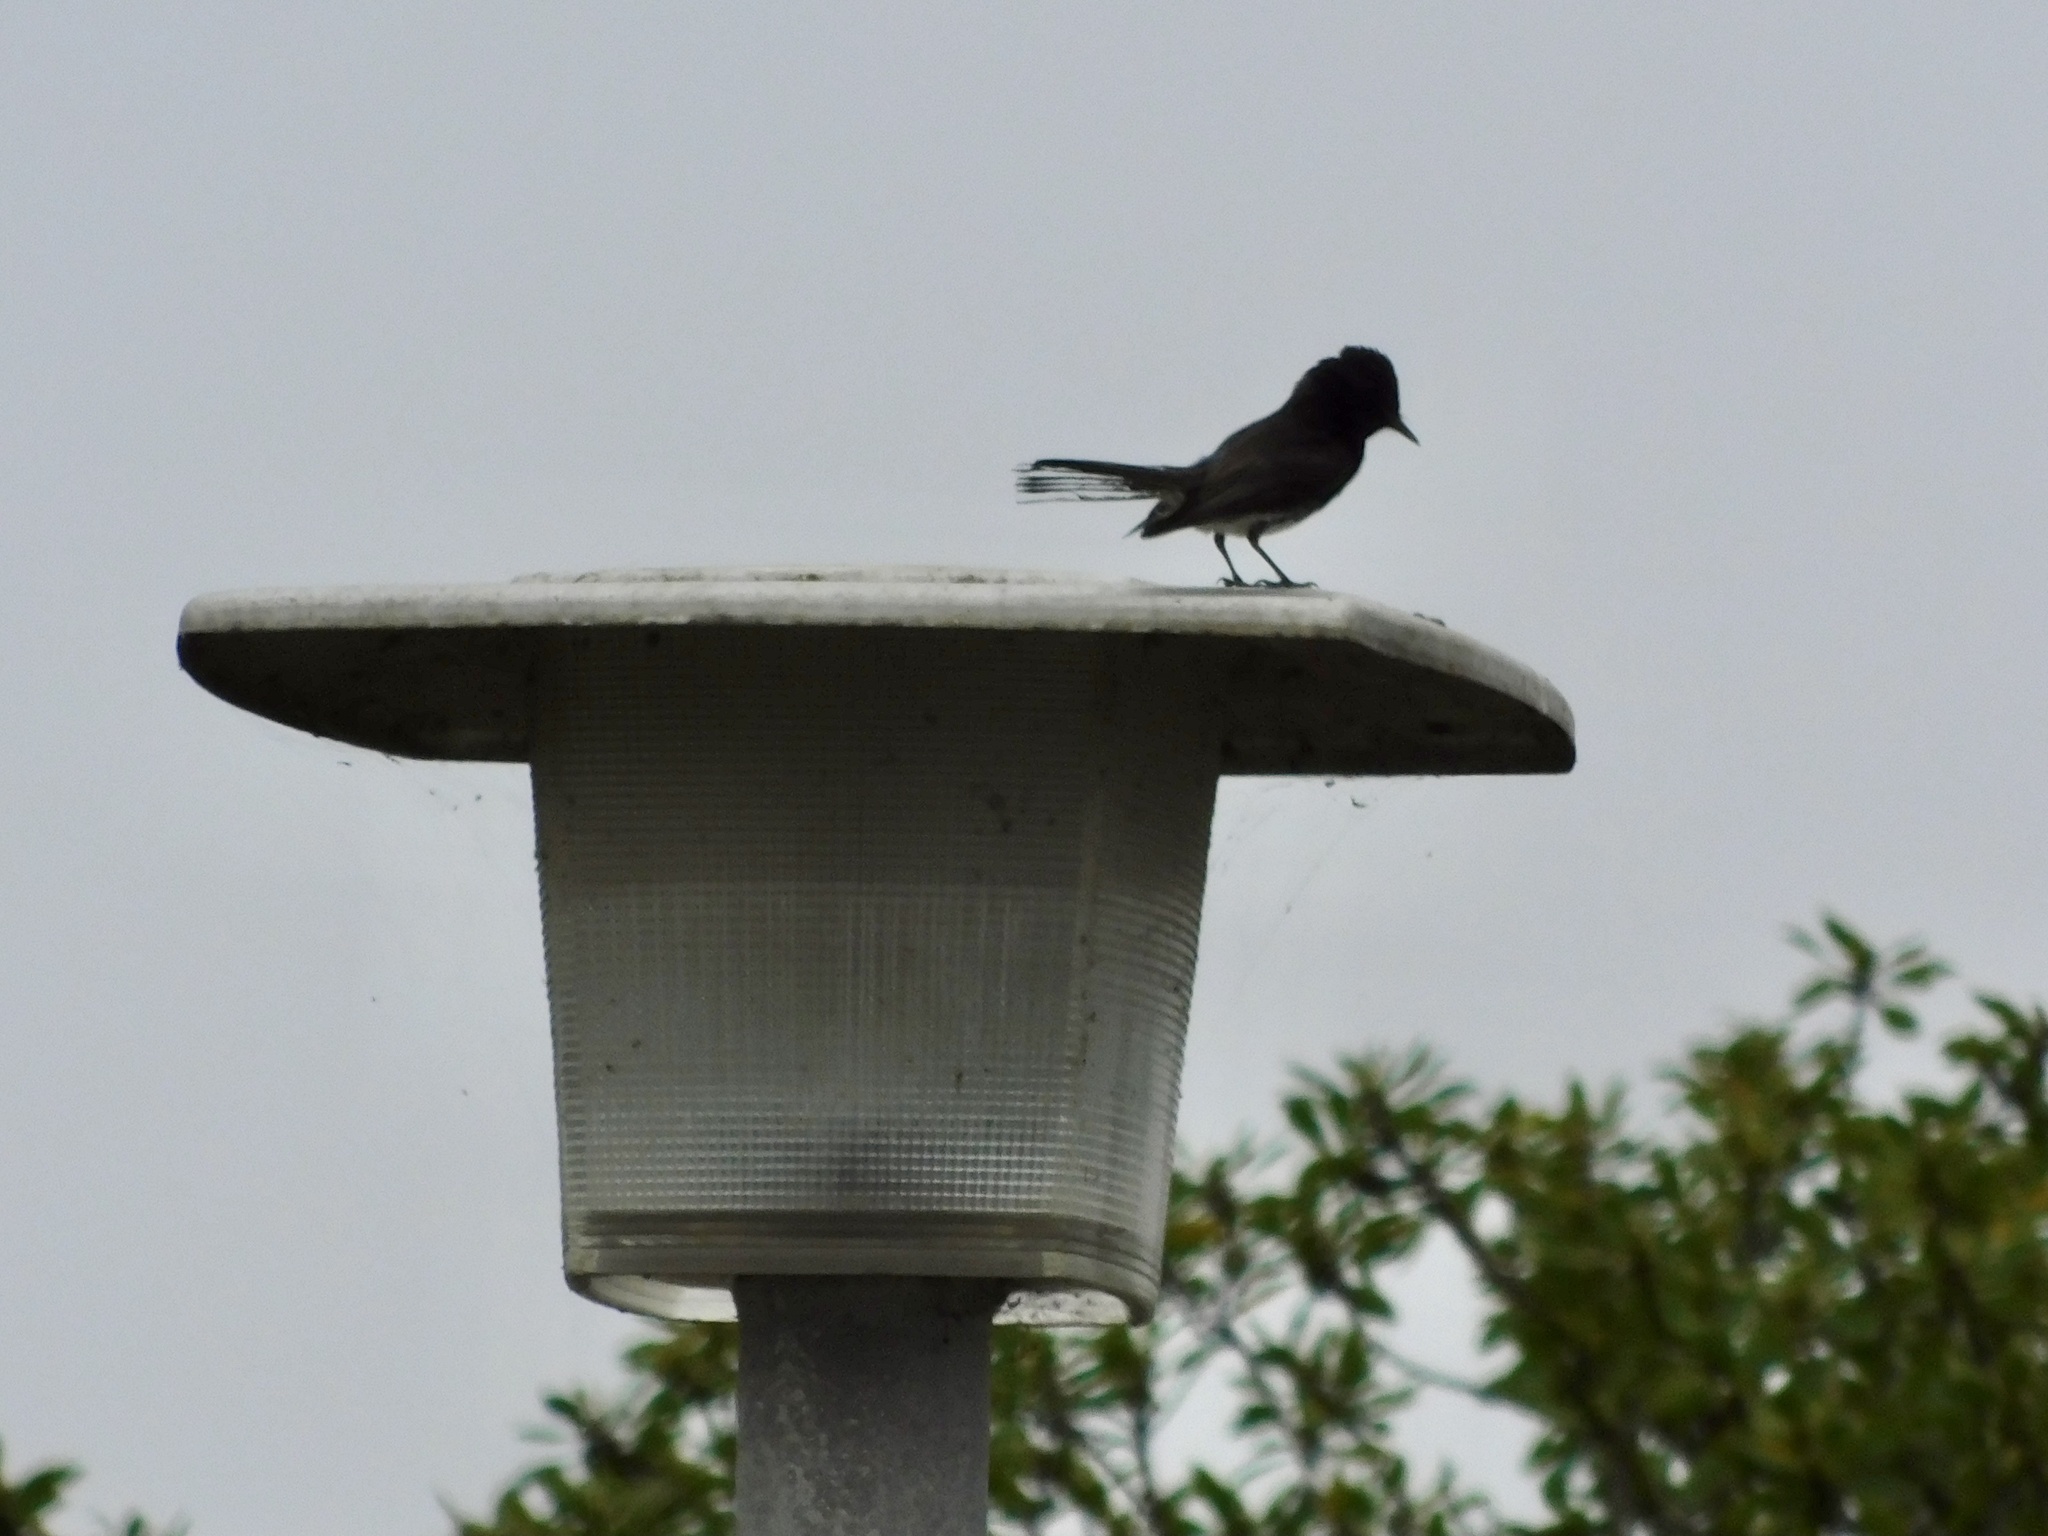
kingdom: Animalia
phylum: Chordata
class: Aves
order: Passeriformes
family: Tyrannidae
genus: Sayornis
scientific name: Sayornis nigricans
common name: Black phoebe
